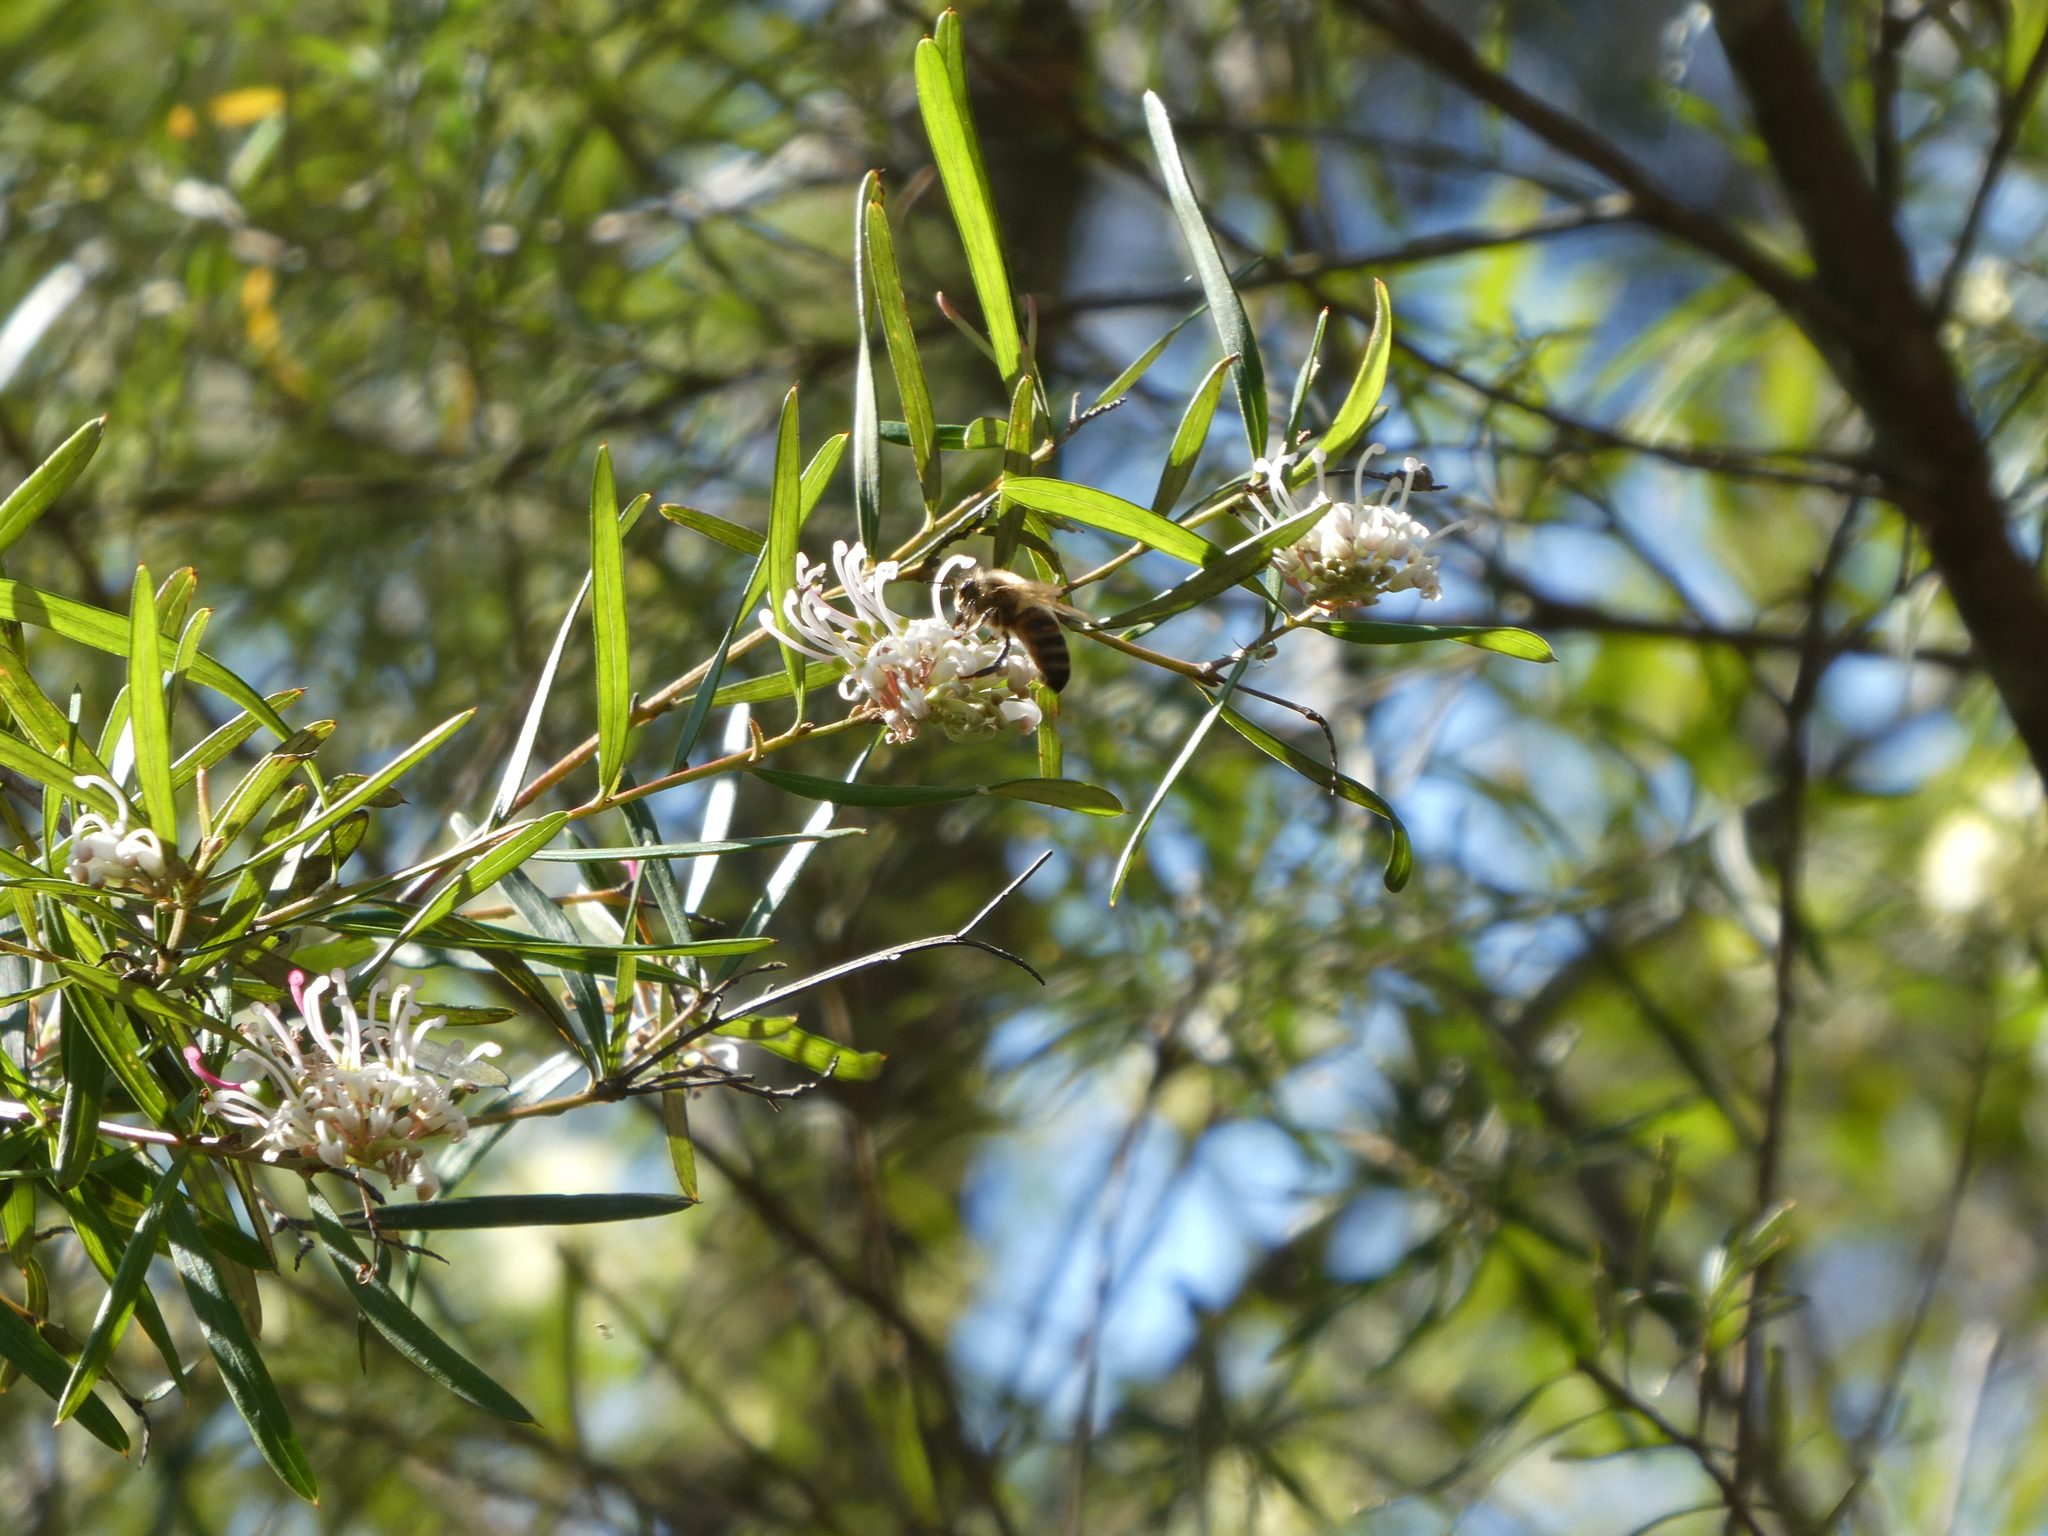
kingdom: Plantae
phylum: Tracheophyta
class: Magnoliopsida
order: Proteales
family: Proteaceae
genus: Grevillea
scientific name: Grevillea linearifolia
